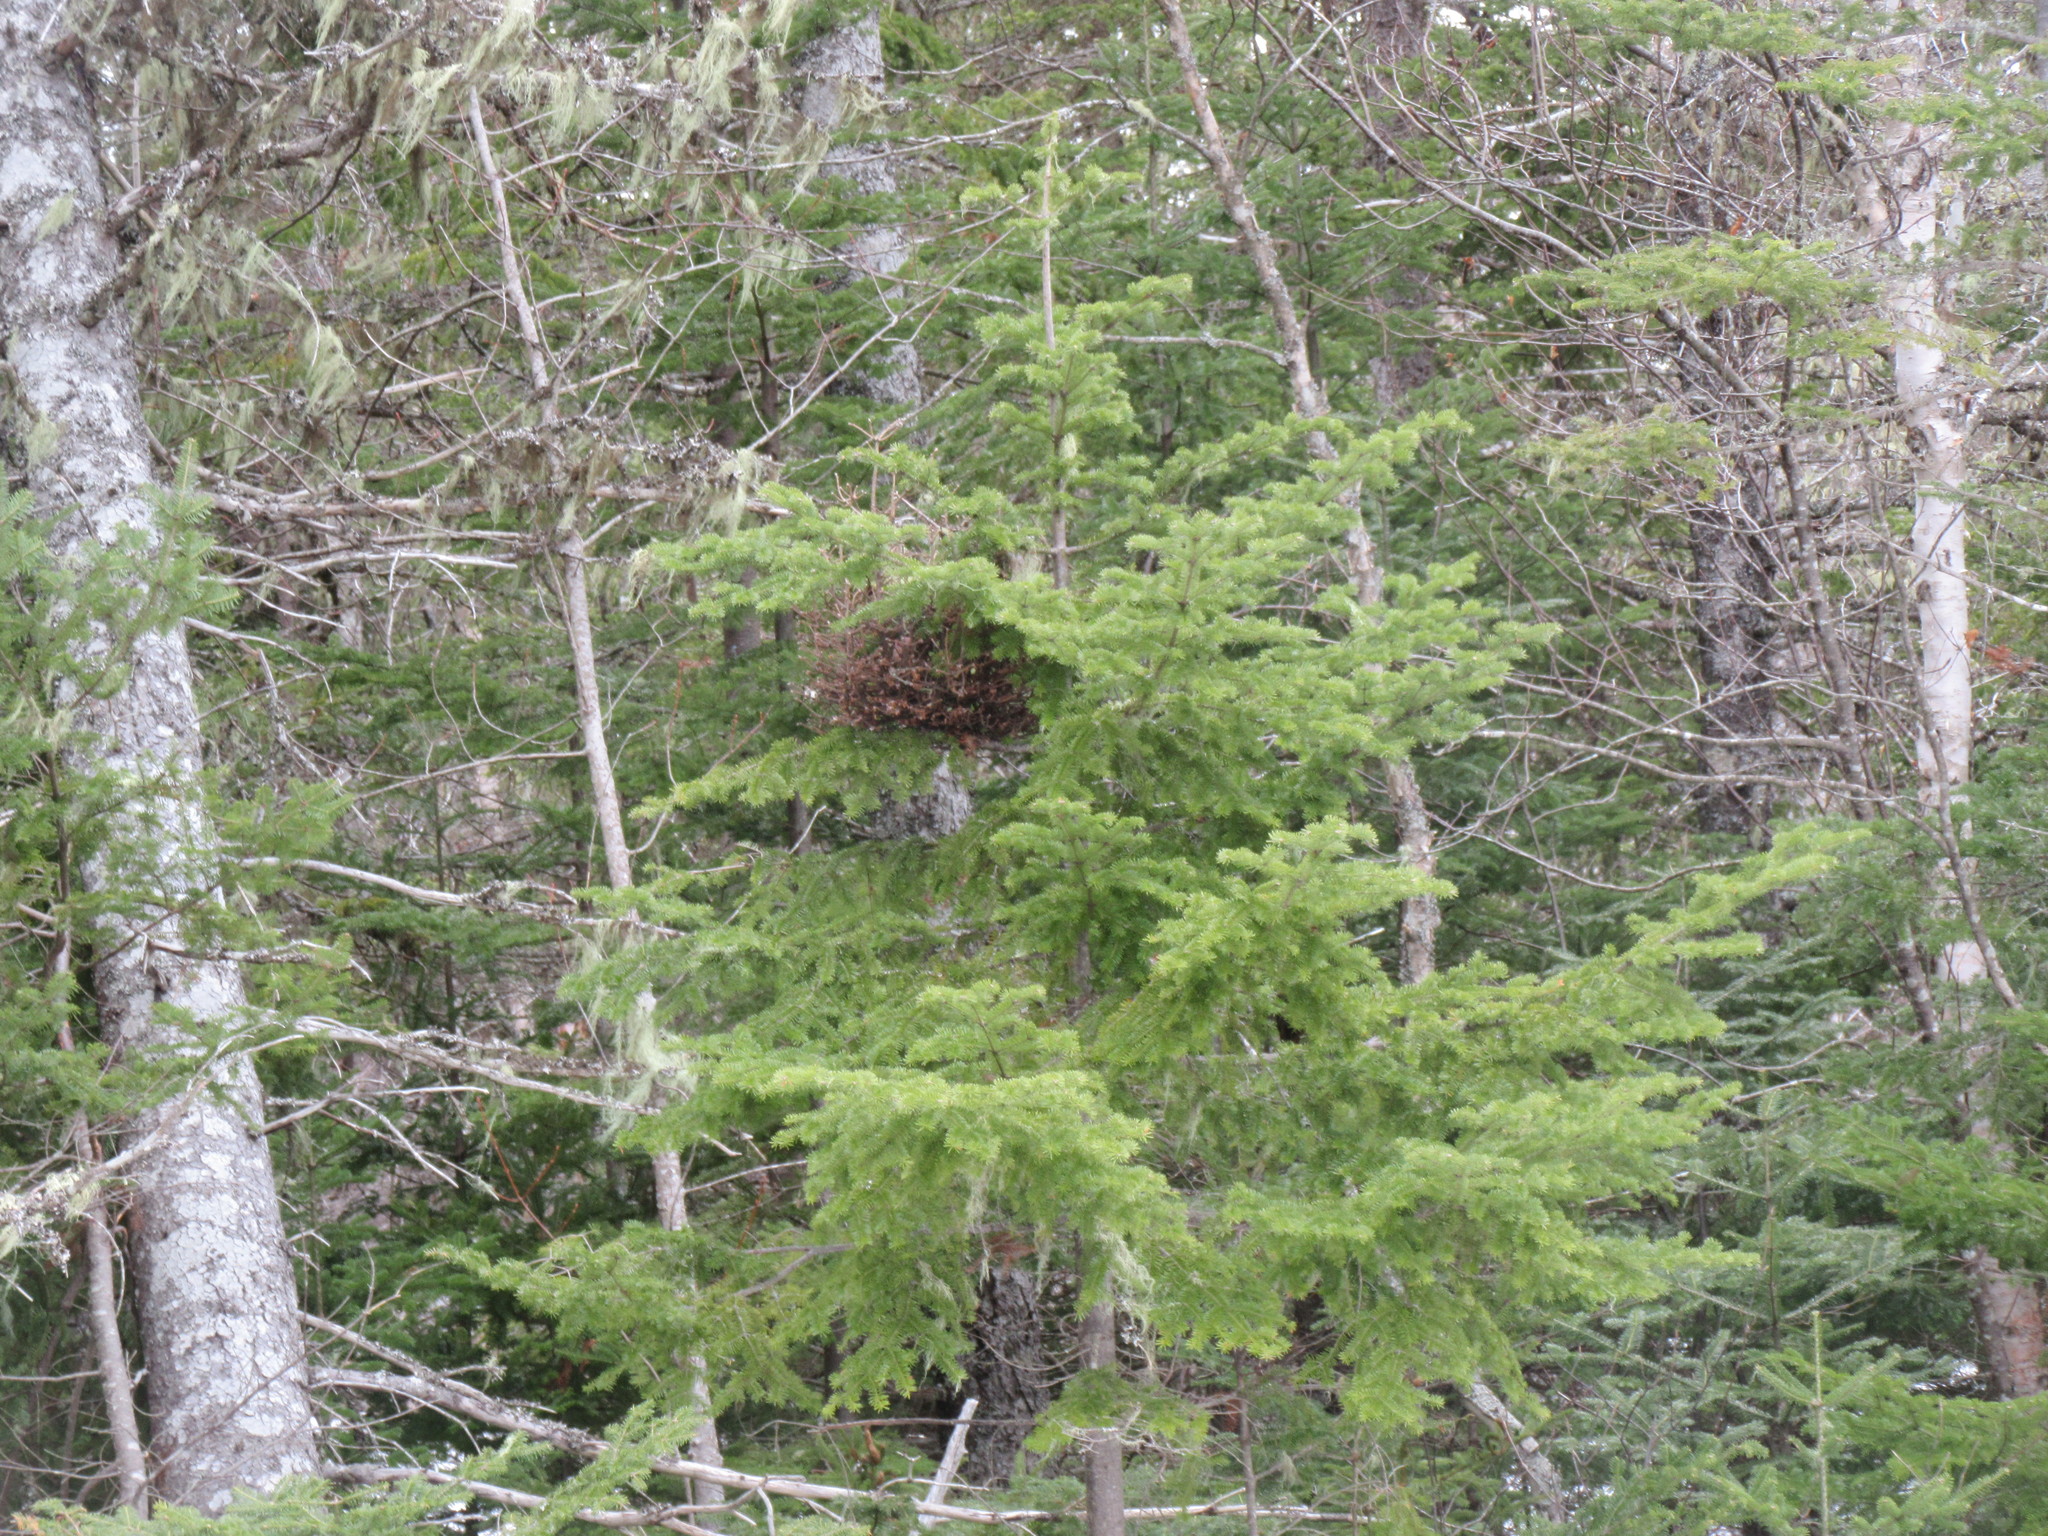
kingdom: Plantae
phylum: Tracheophyta
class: Pinopsida
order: Pinales
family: Pinaceae
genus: Abies
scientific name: Abies balsamea
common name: Balsam fir
